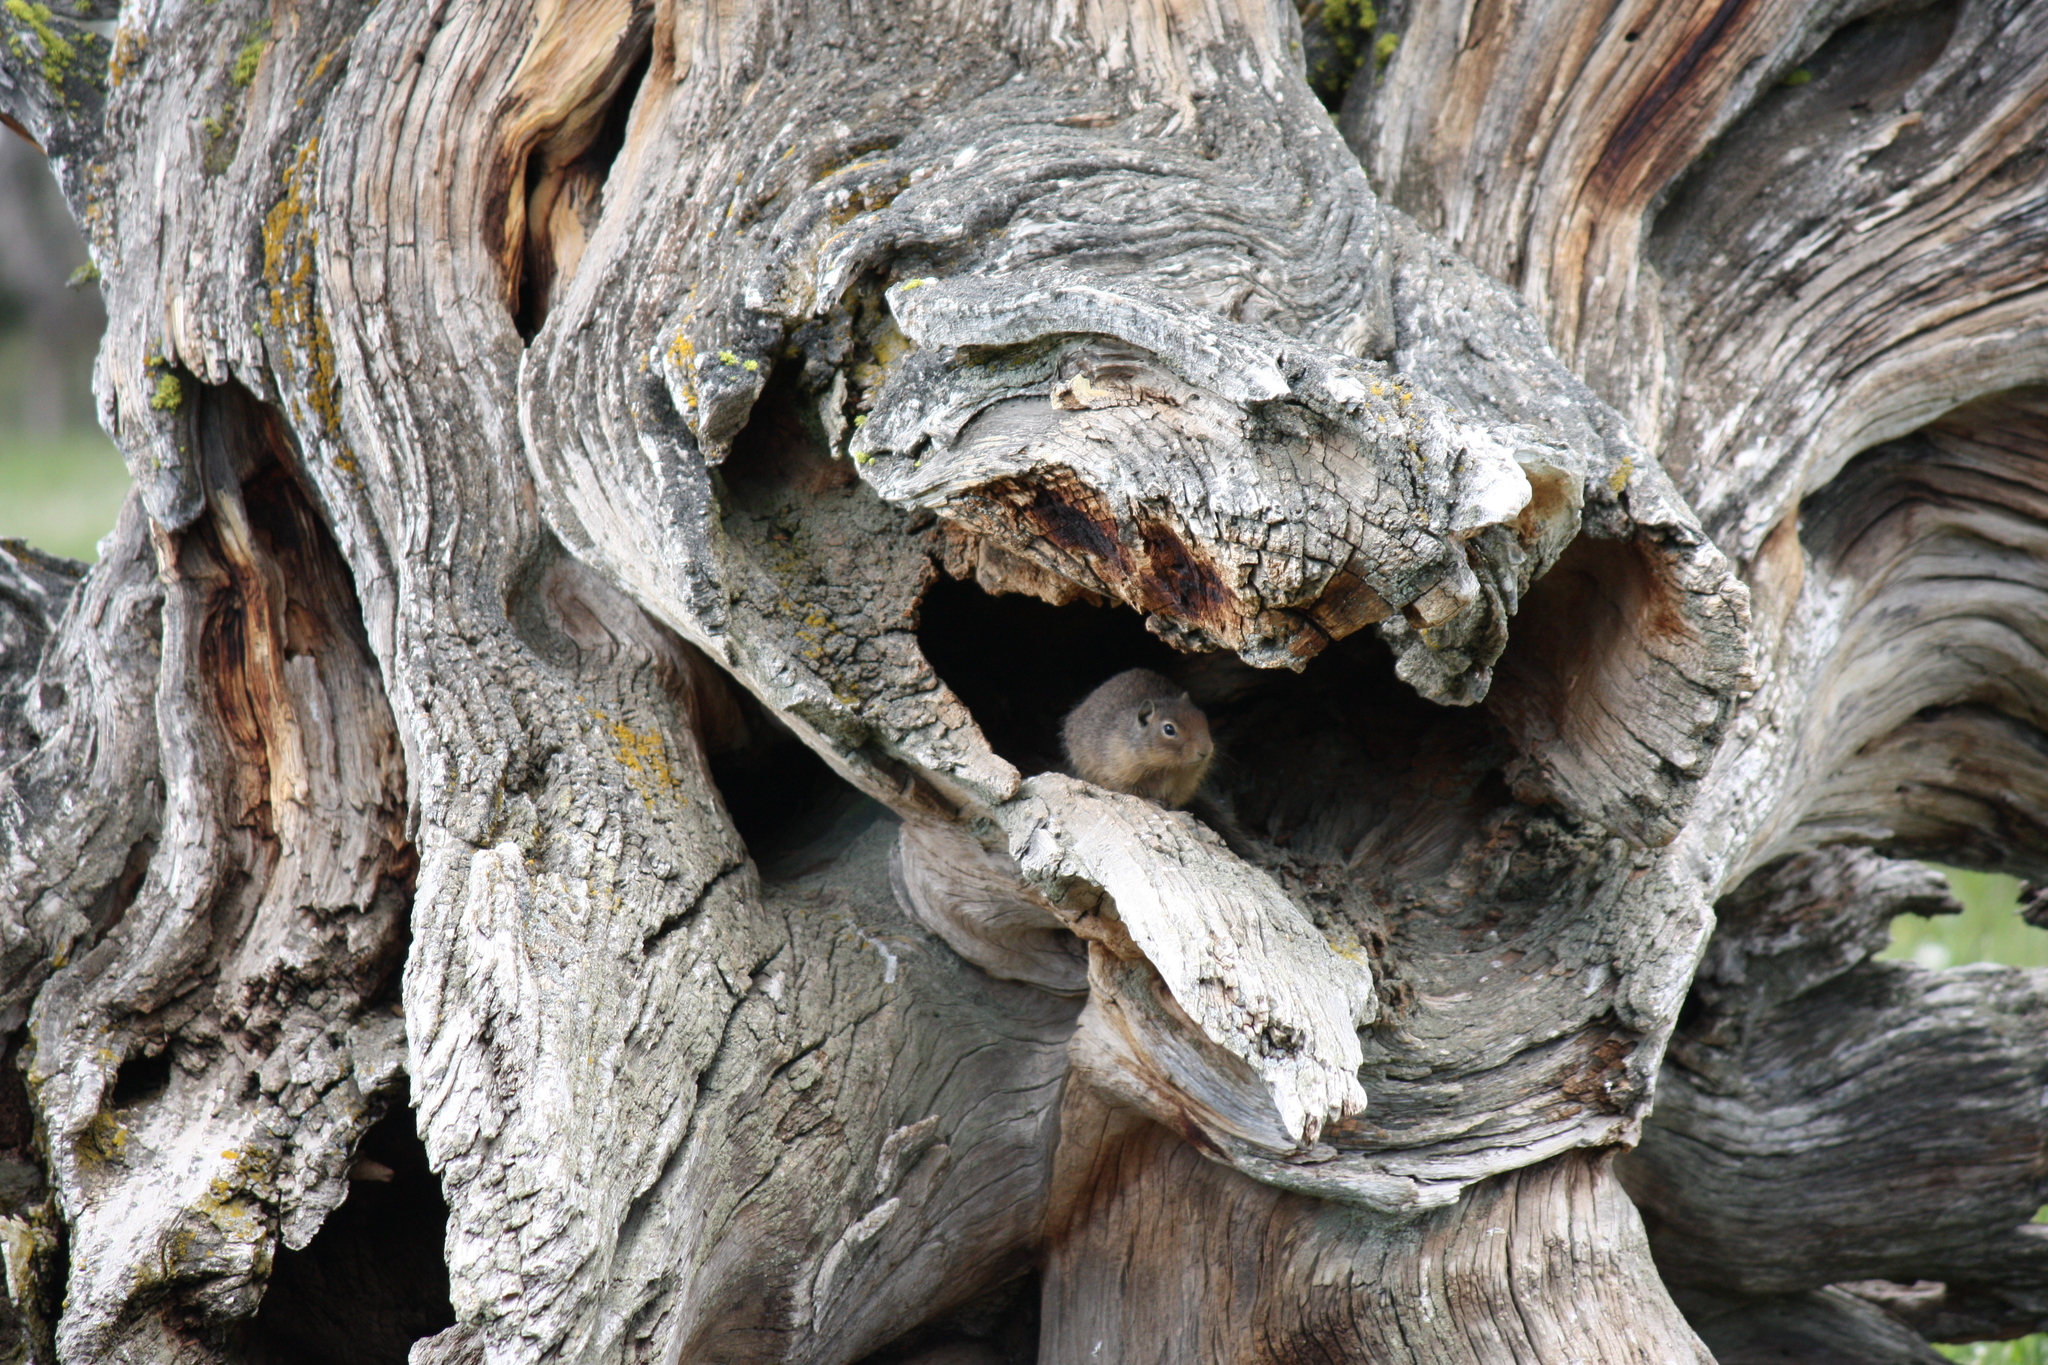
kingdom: Animalia
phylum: Chordata
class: Mammalia
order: Rodentia
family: Sciuridae
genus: Urocitellus
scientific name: Urocitellus columbianus
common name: Columbian ground squirrel
